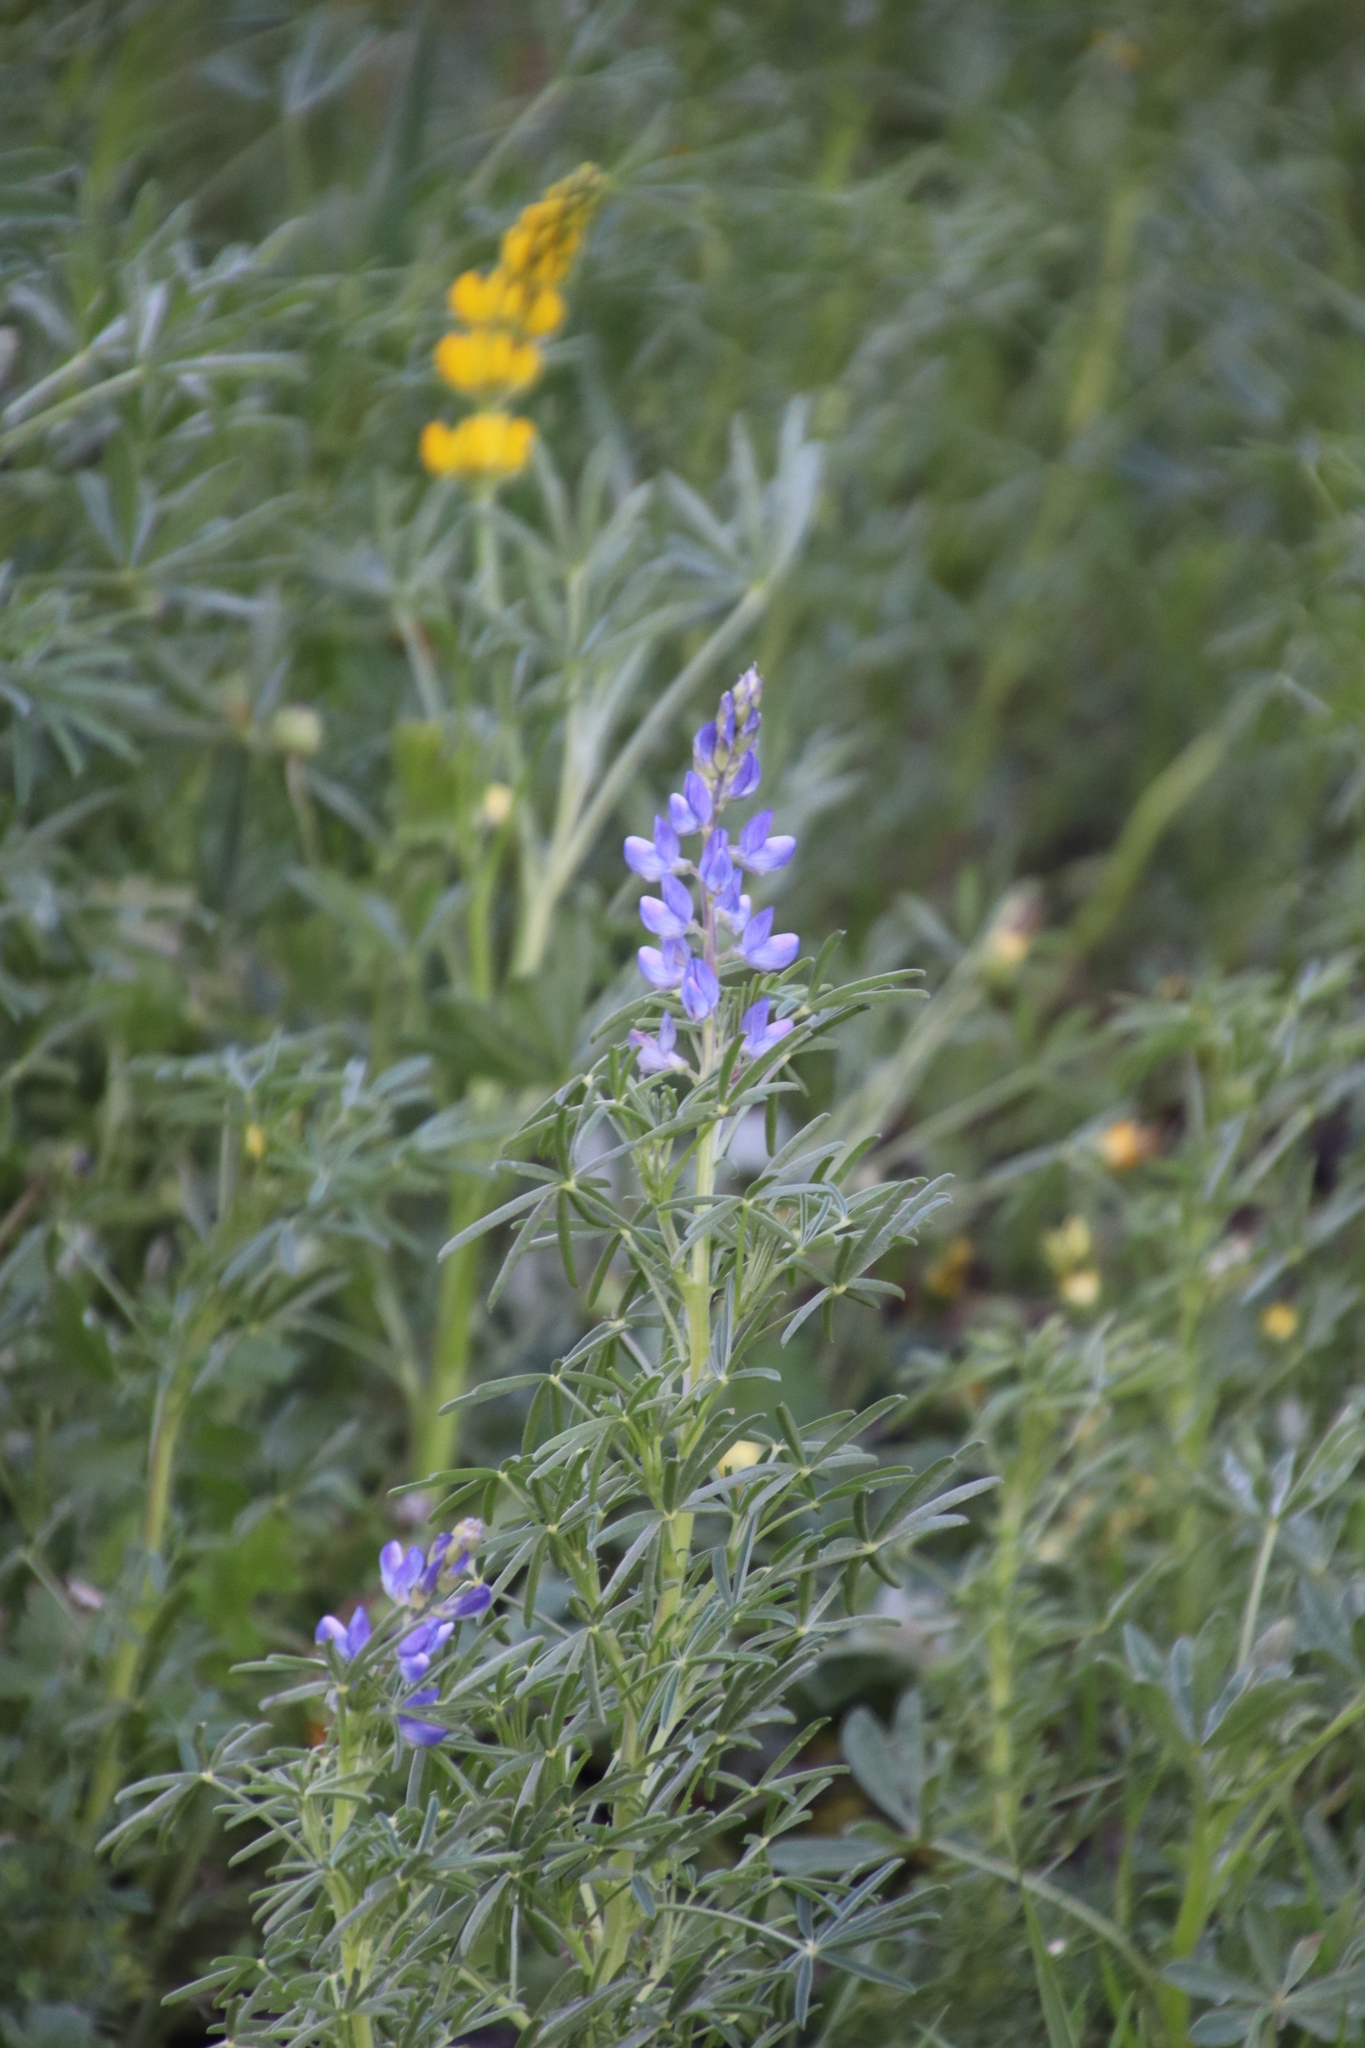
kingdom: Plantae
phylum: Tracheophyta
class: Magnoliopsida
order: Fabales
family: Fabaceae
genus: Lupinus
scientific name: Lupinus angustifolius
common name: Narrow-leaved lupin
